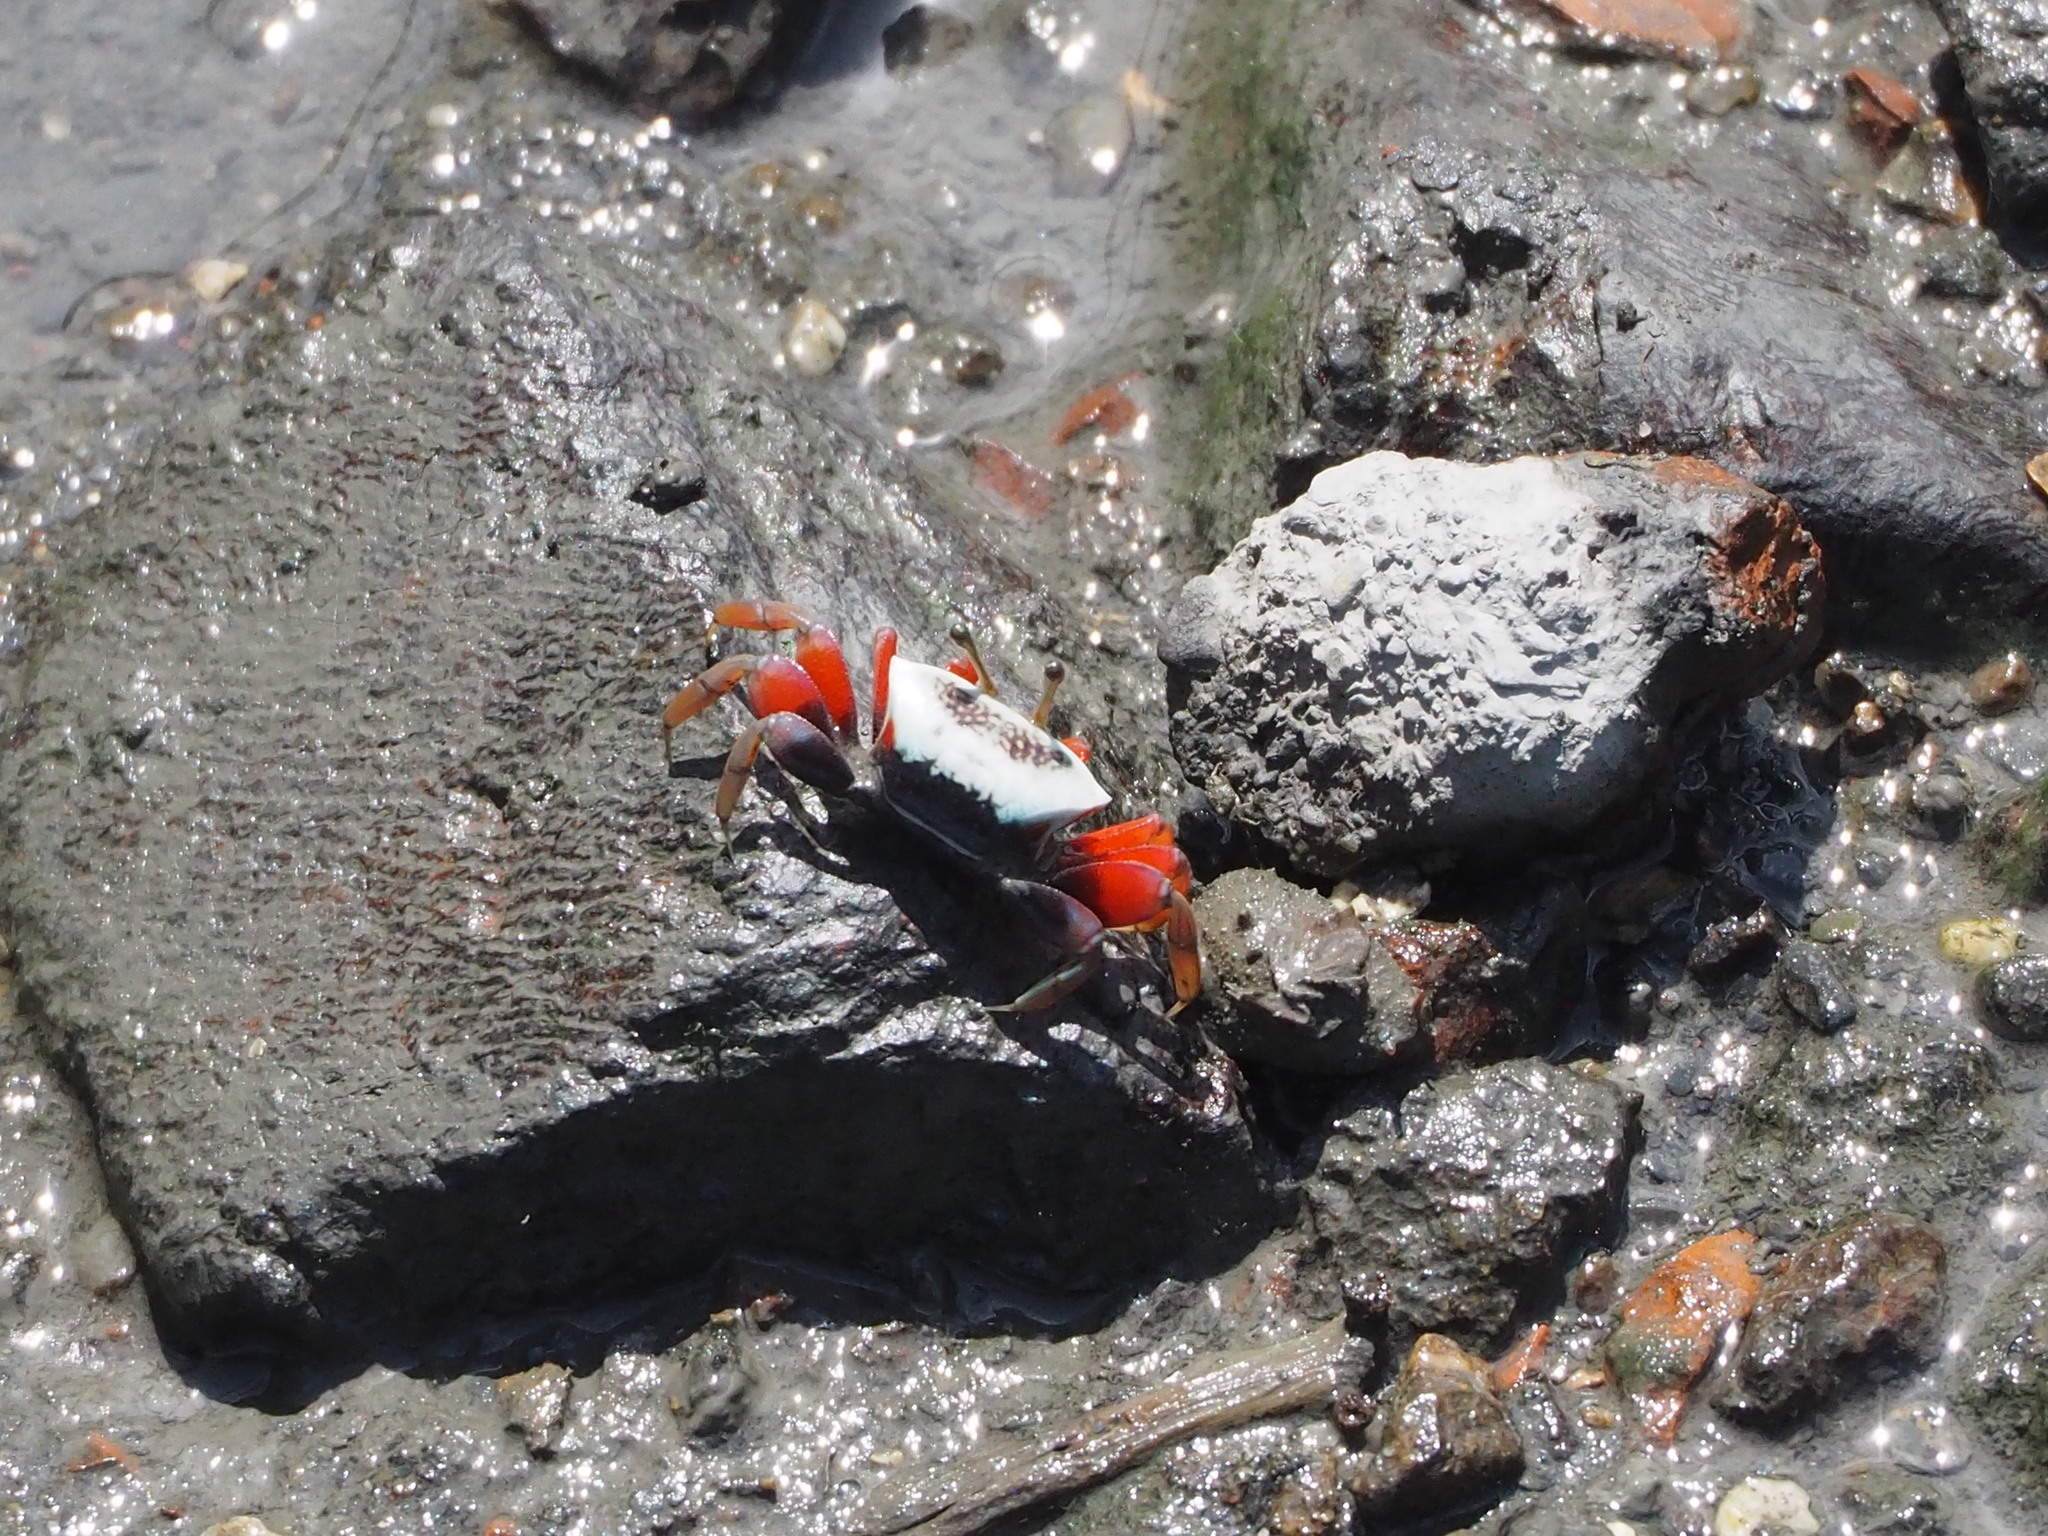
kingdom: Animalia
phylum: Arthropoda
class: Malacostraca
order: Decapoda
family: Ocypodidae
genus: Tubuca
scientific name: Tubuca arcuata
